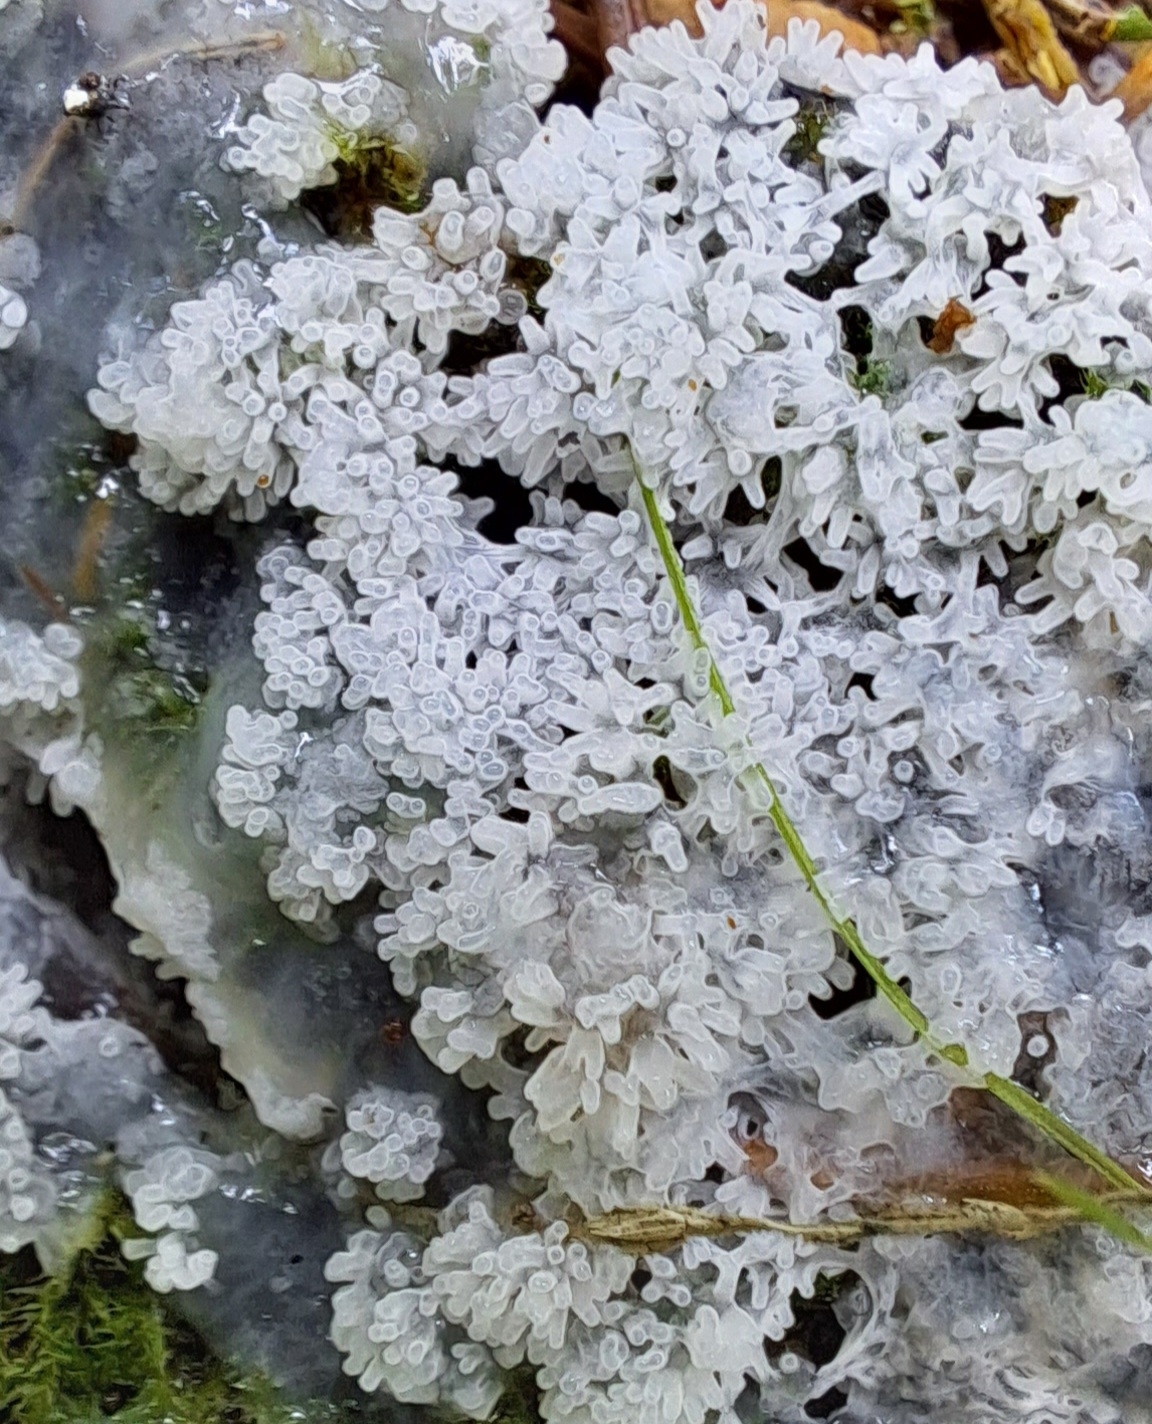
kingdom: Protozoa
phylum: Mycetozoa
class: Protosteliomycetes
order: Ceratiomyxales
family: Ceratiomyxaceae
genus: Ceratiomyxa
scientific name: Ceratiomyxa fruticulosa
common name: Honeycomb coral slime mold
